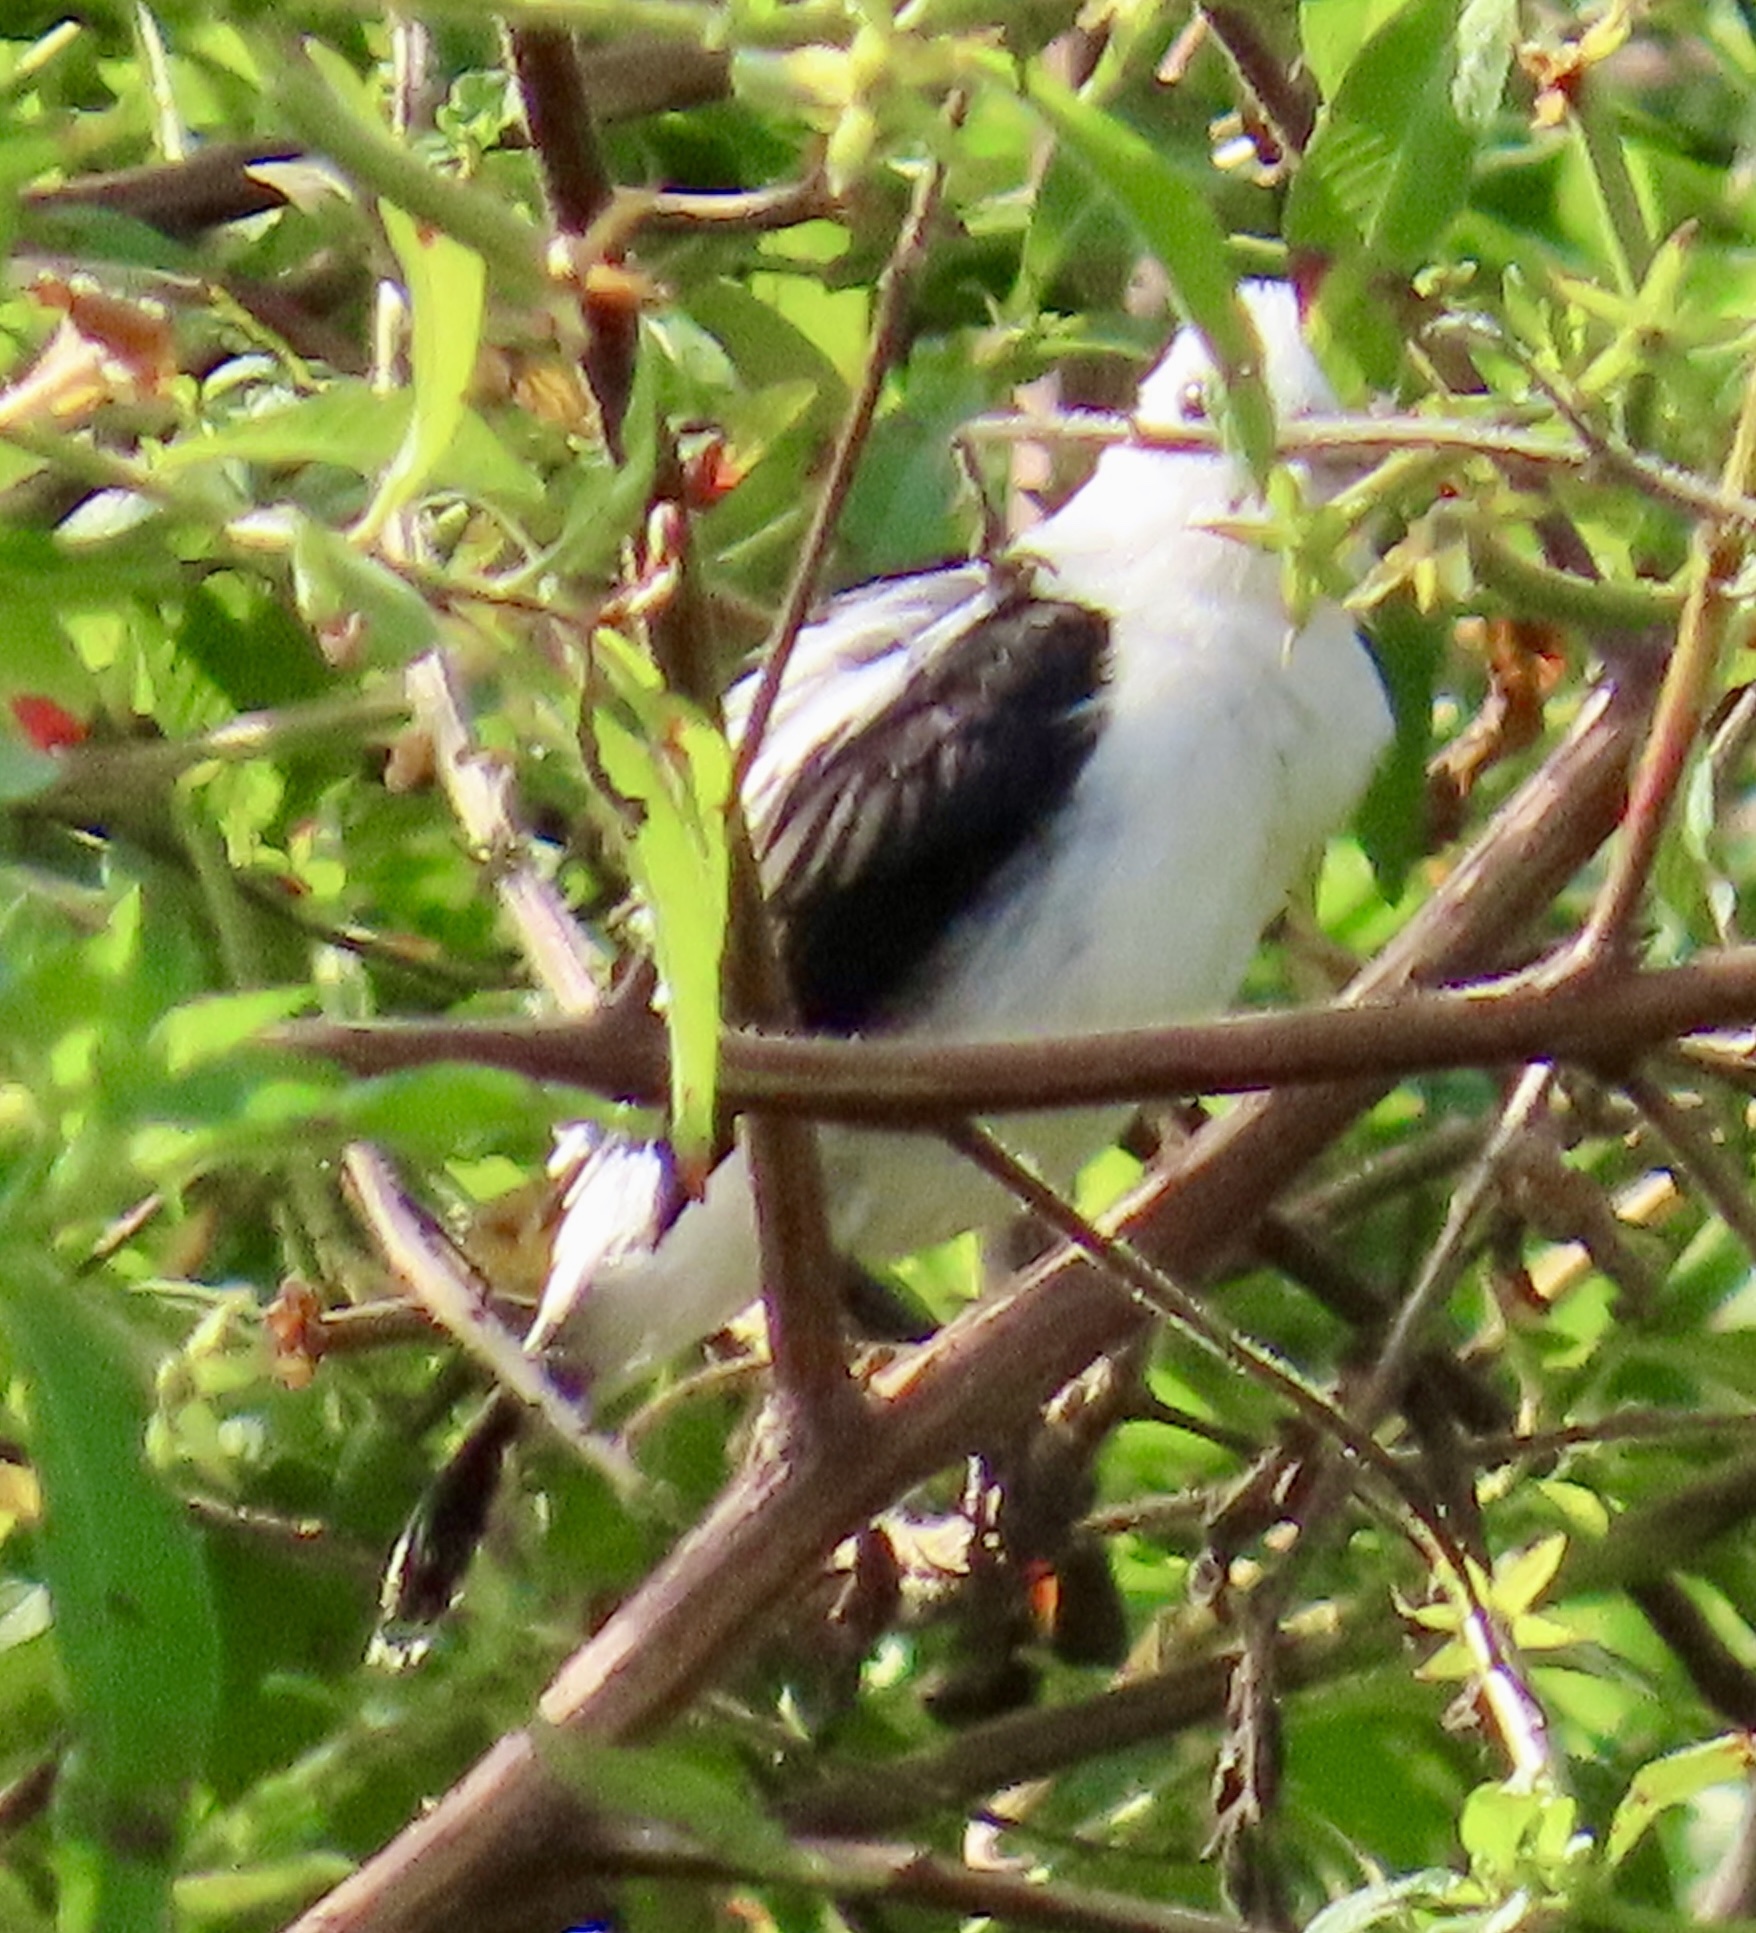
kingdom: Animalia
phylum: Chordata
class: Aves
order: Passeriformes
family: Tyrannidae
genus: Fluvicola
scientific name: Fluvicola pica
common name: Pied water-tyrant
